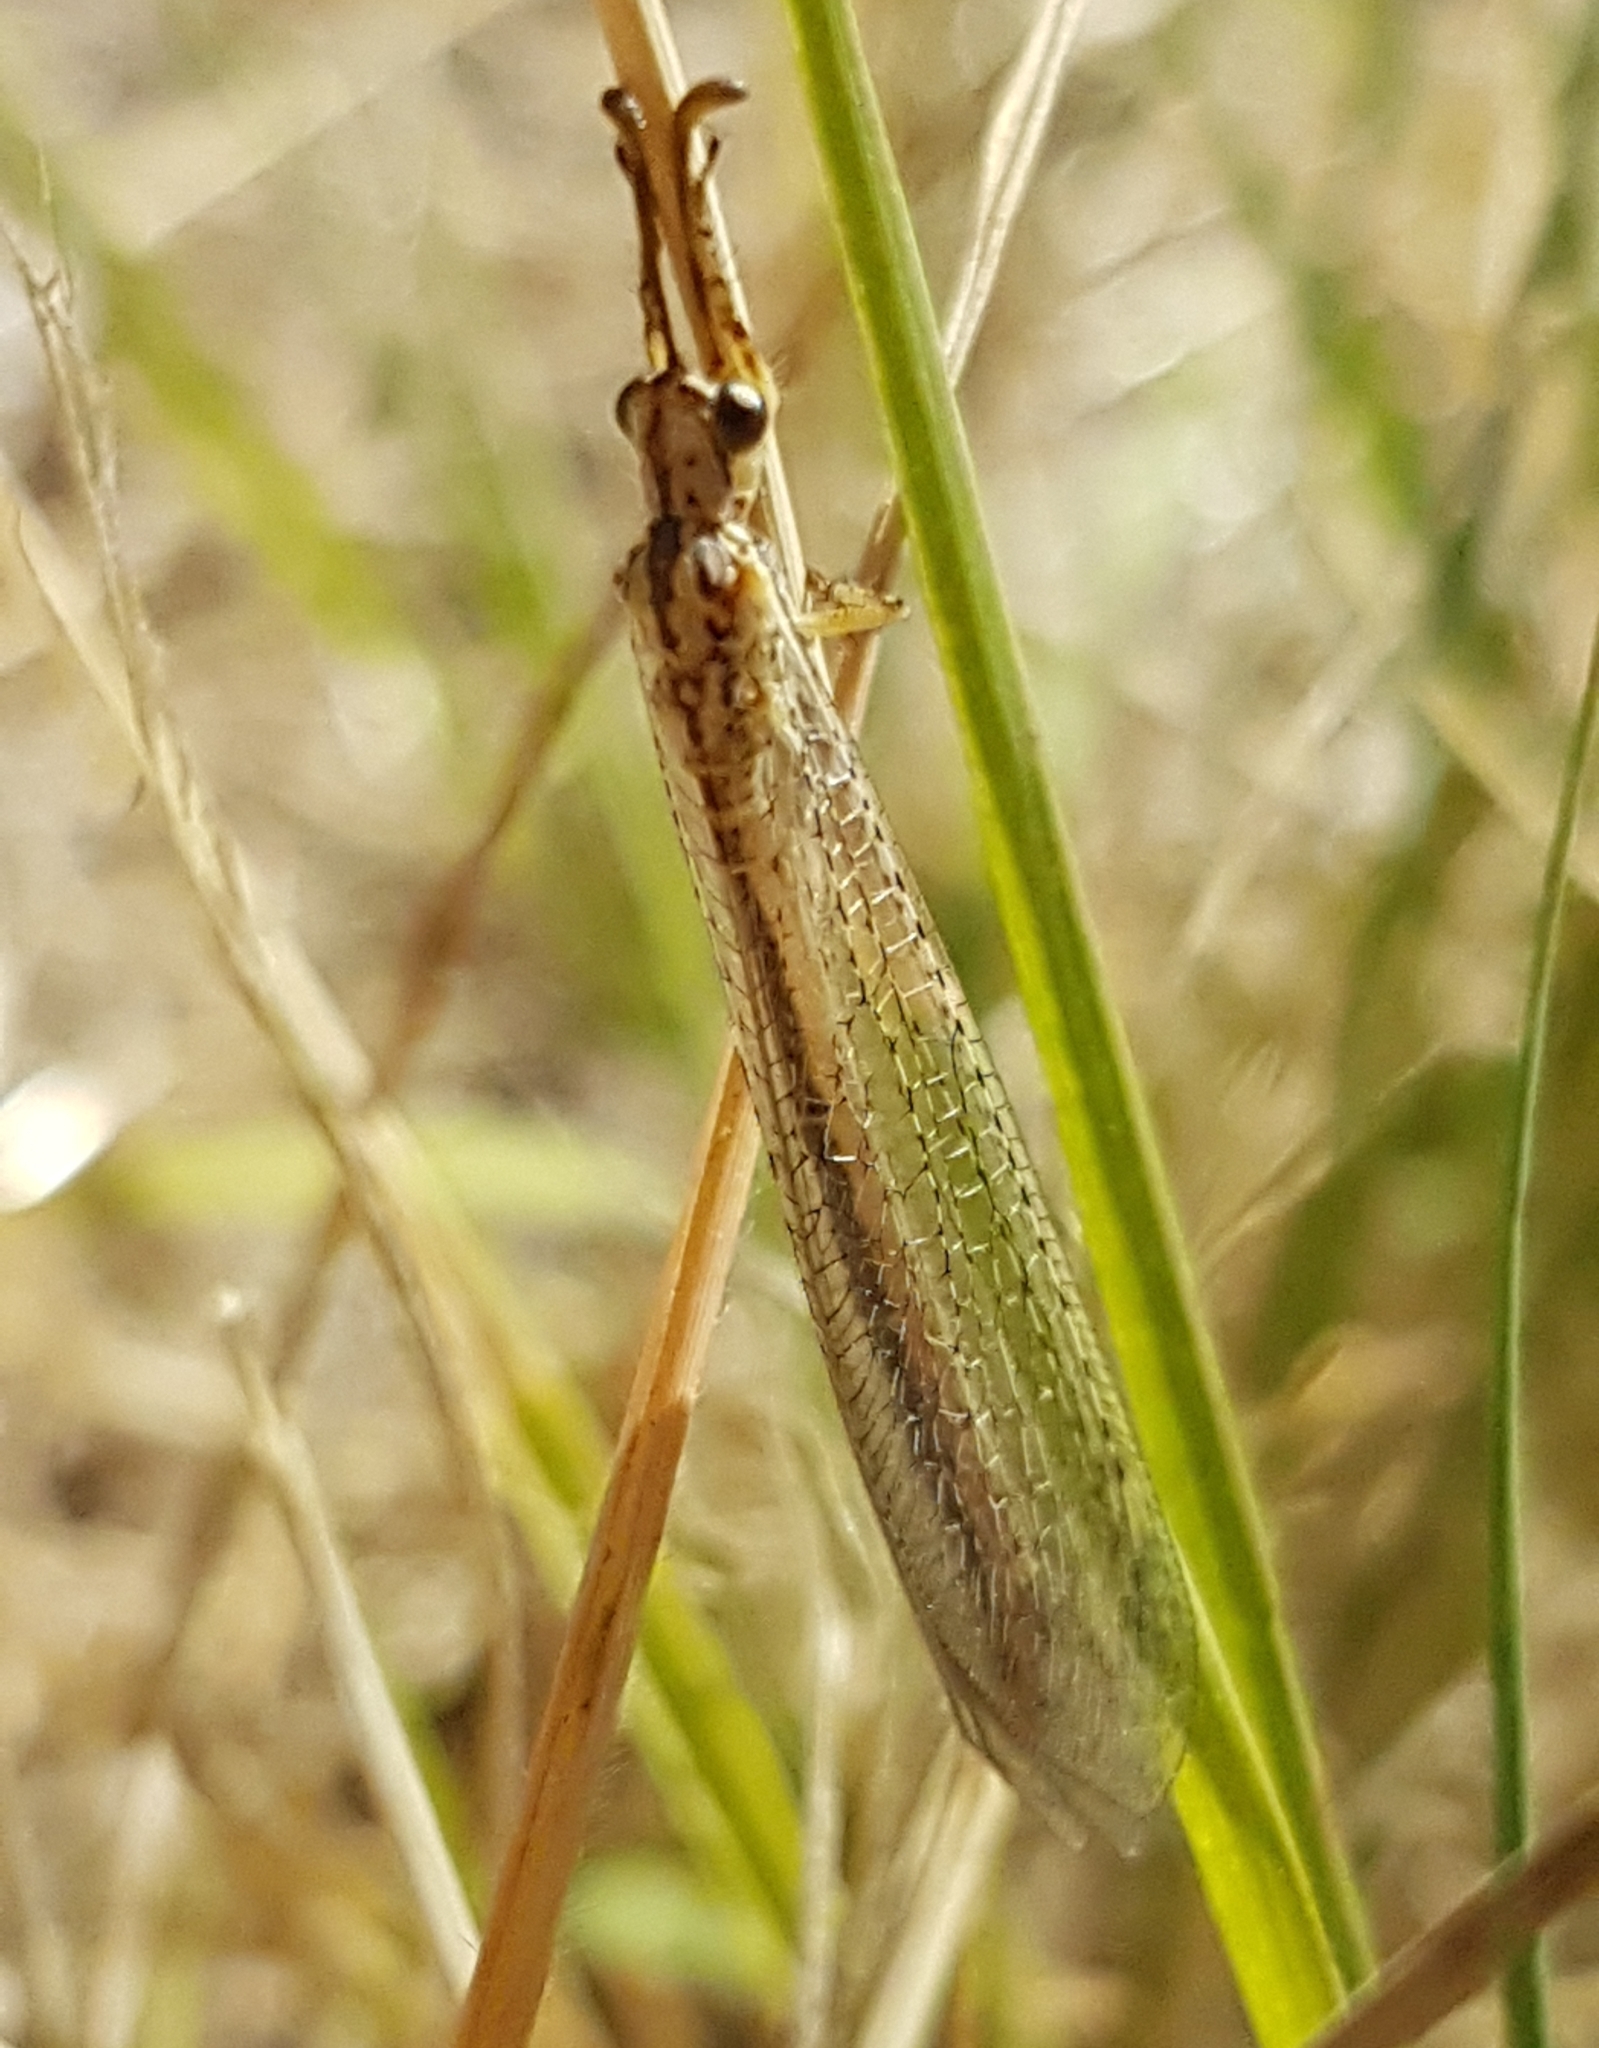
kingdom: Animalia
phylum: Arthropoda
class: Insecta
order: Neuroptera
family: Myrmeleontidae
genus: Macronemurus
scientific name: Macronemurus appendiculatus
